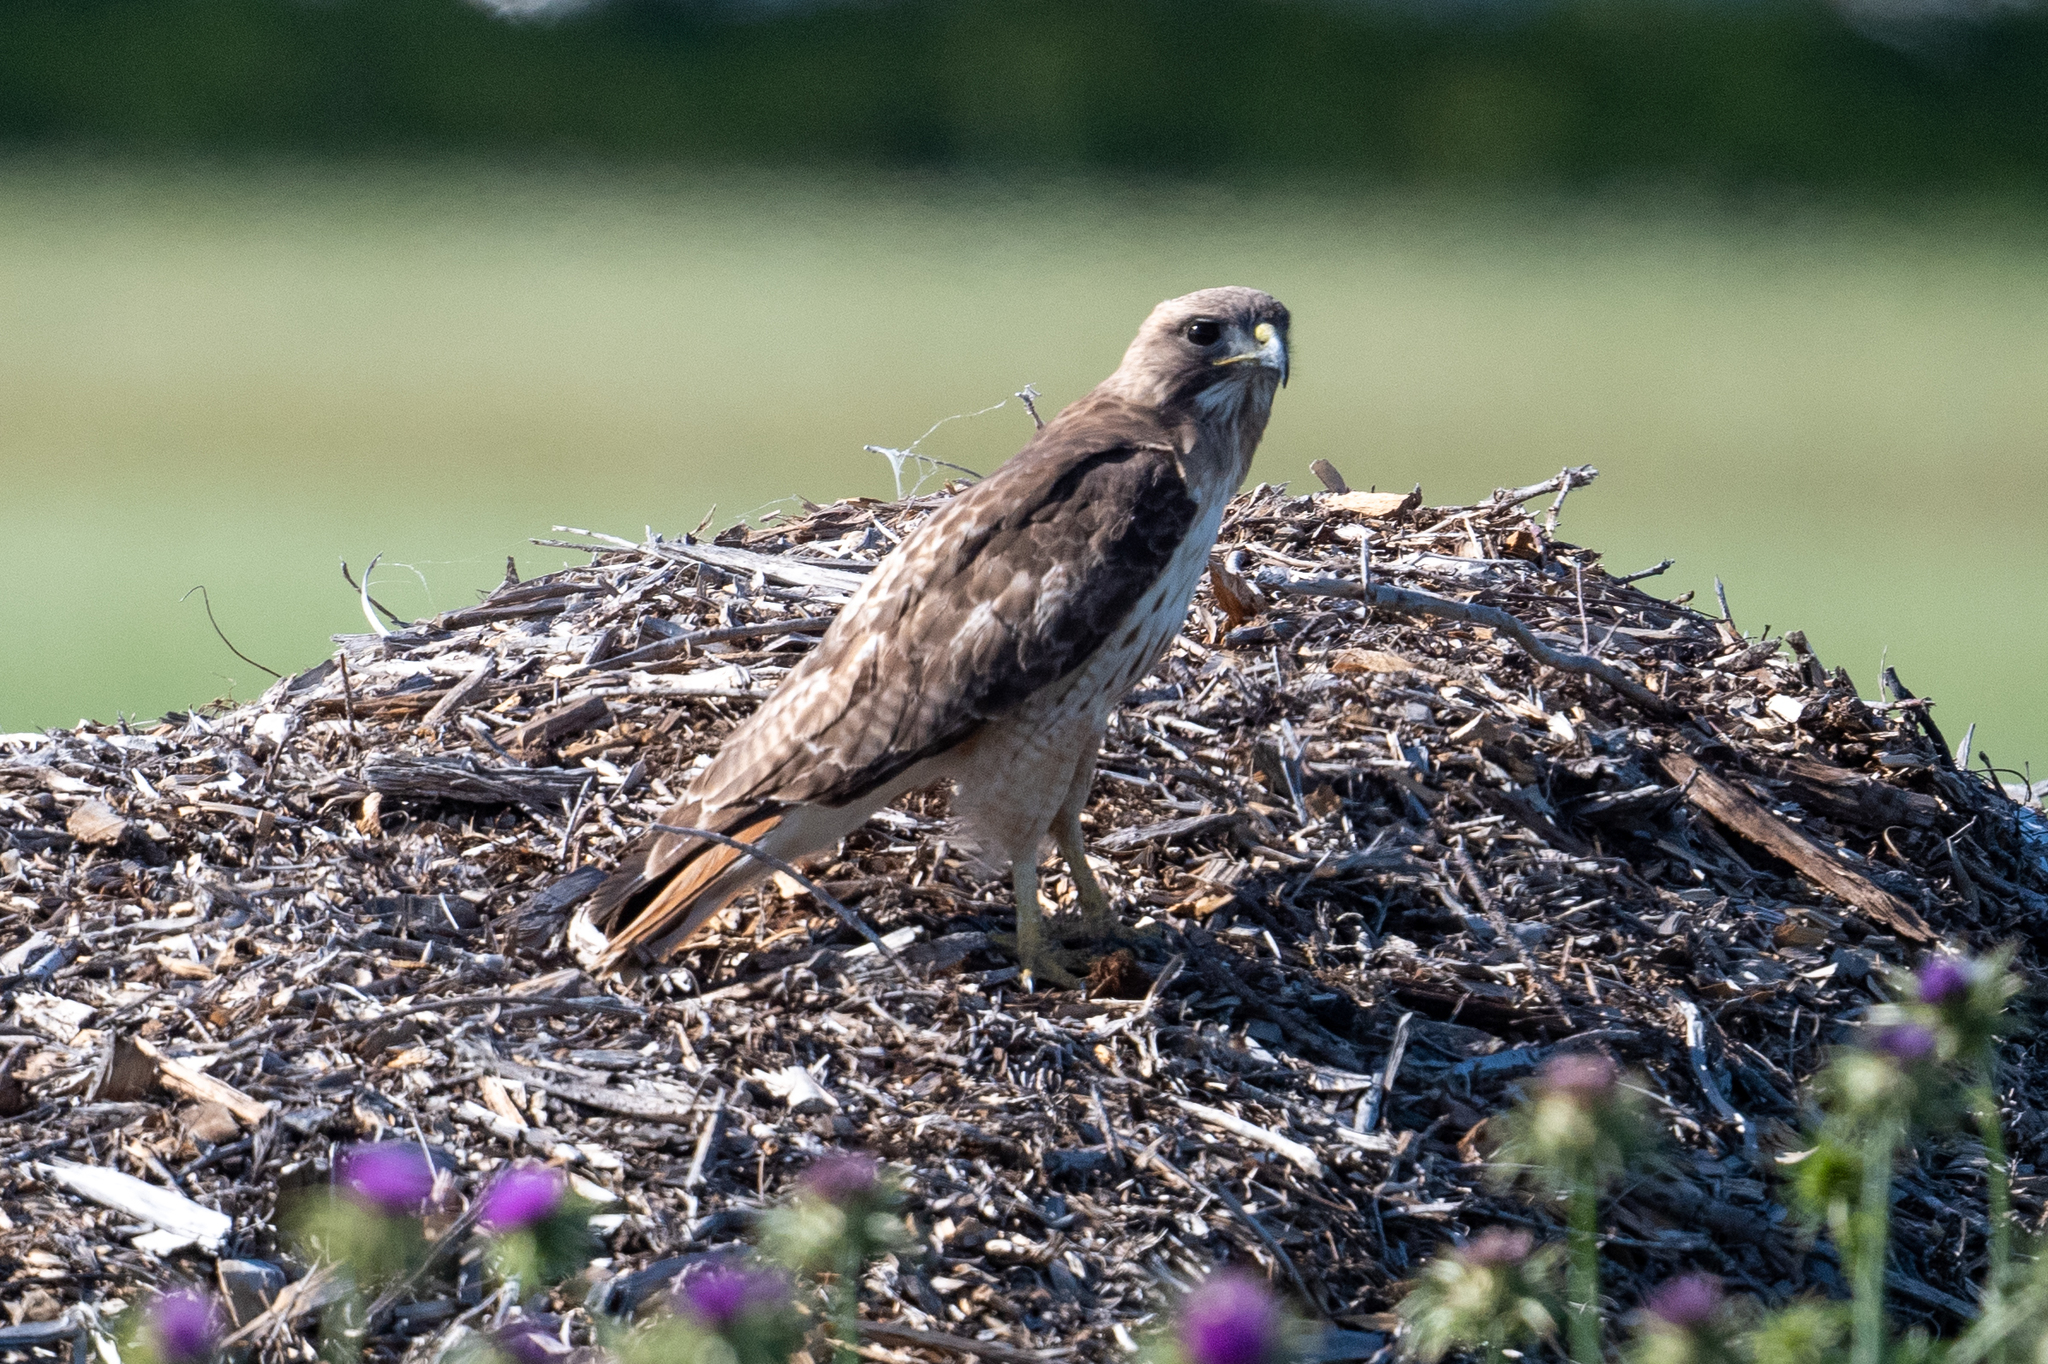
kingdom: Animalia
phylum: Chordata
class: Aves
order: Accipitriformes
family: Accipitridae
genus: Buteo
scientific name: Buteo jamaicensis
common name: Red-tailed hawk
